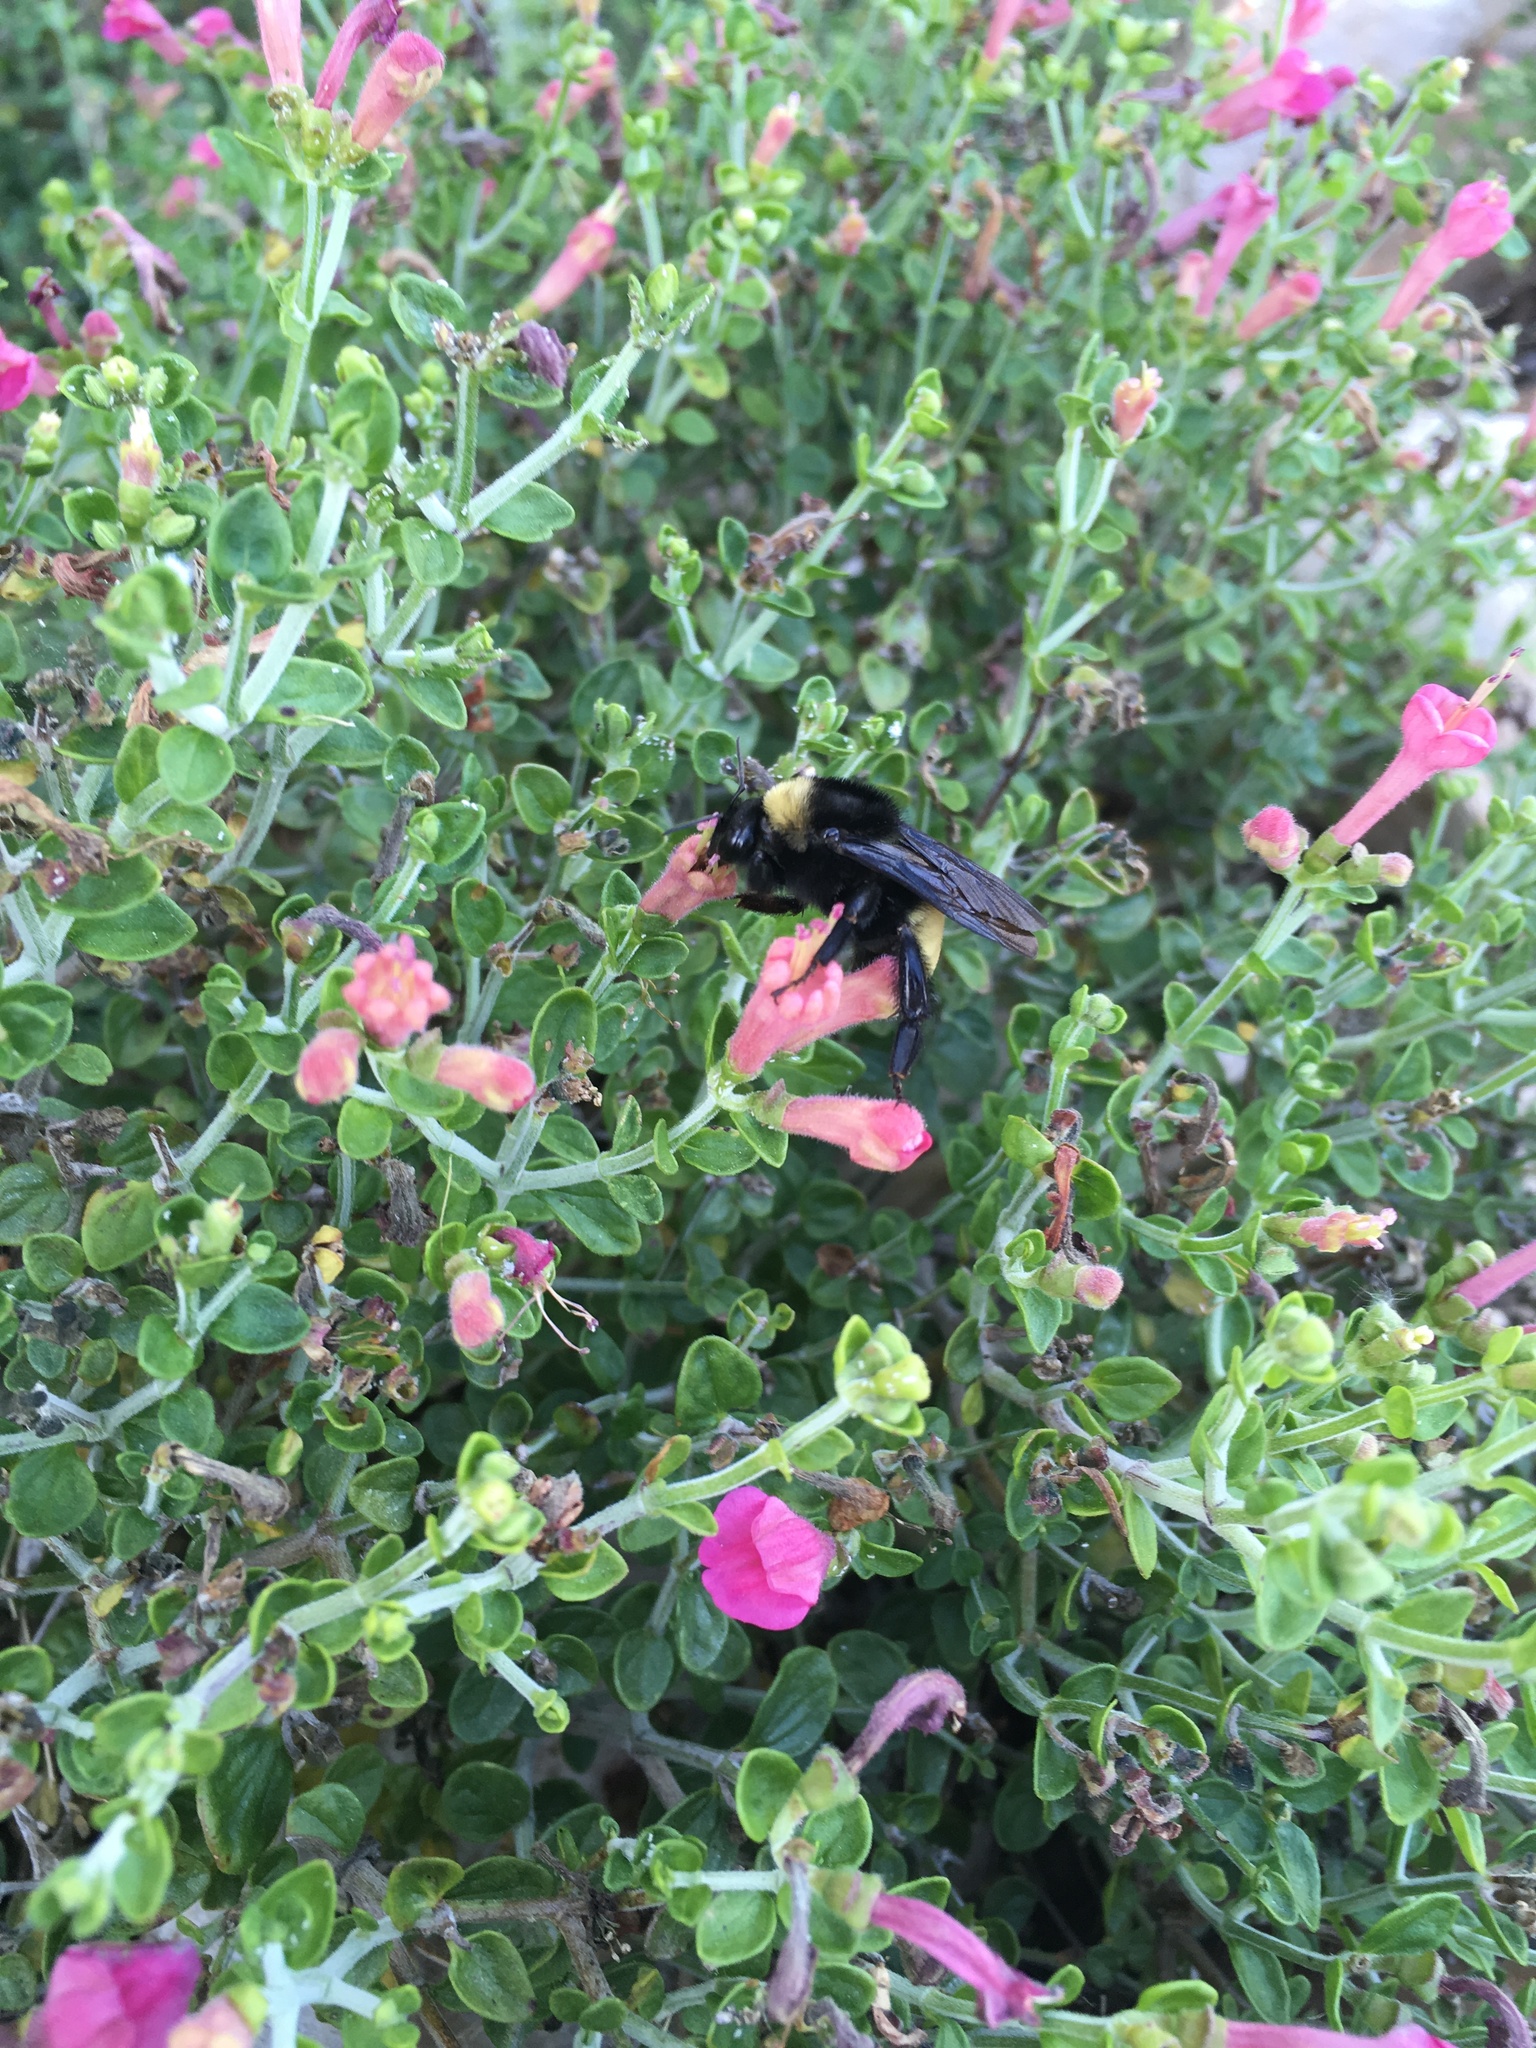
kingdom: Animalia
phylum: Arthropoda
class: Insecta
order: Hymenoptera
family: Apidae
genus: Bombus
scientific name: Bombus pensylvanicus
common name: Bumble bee
